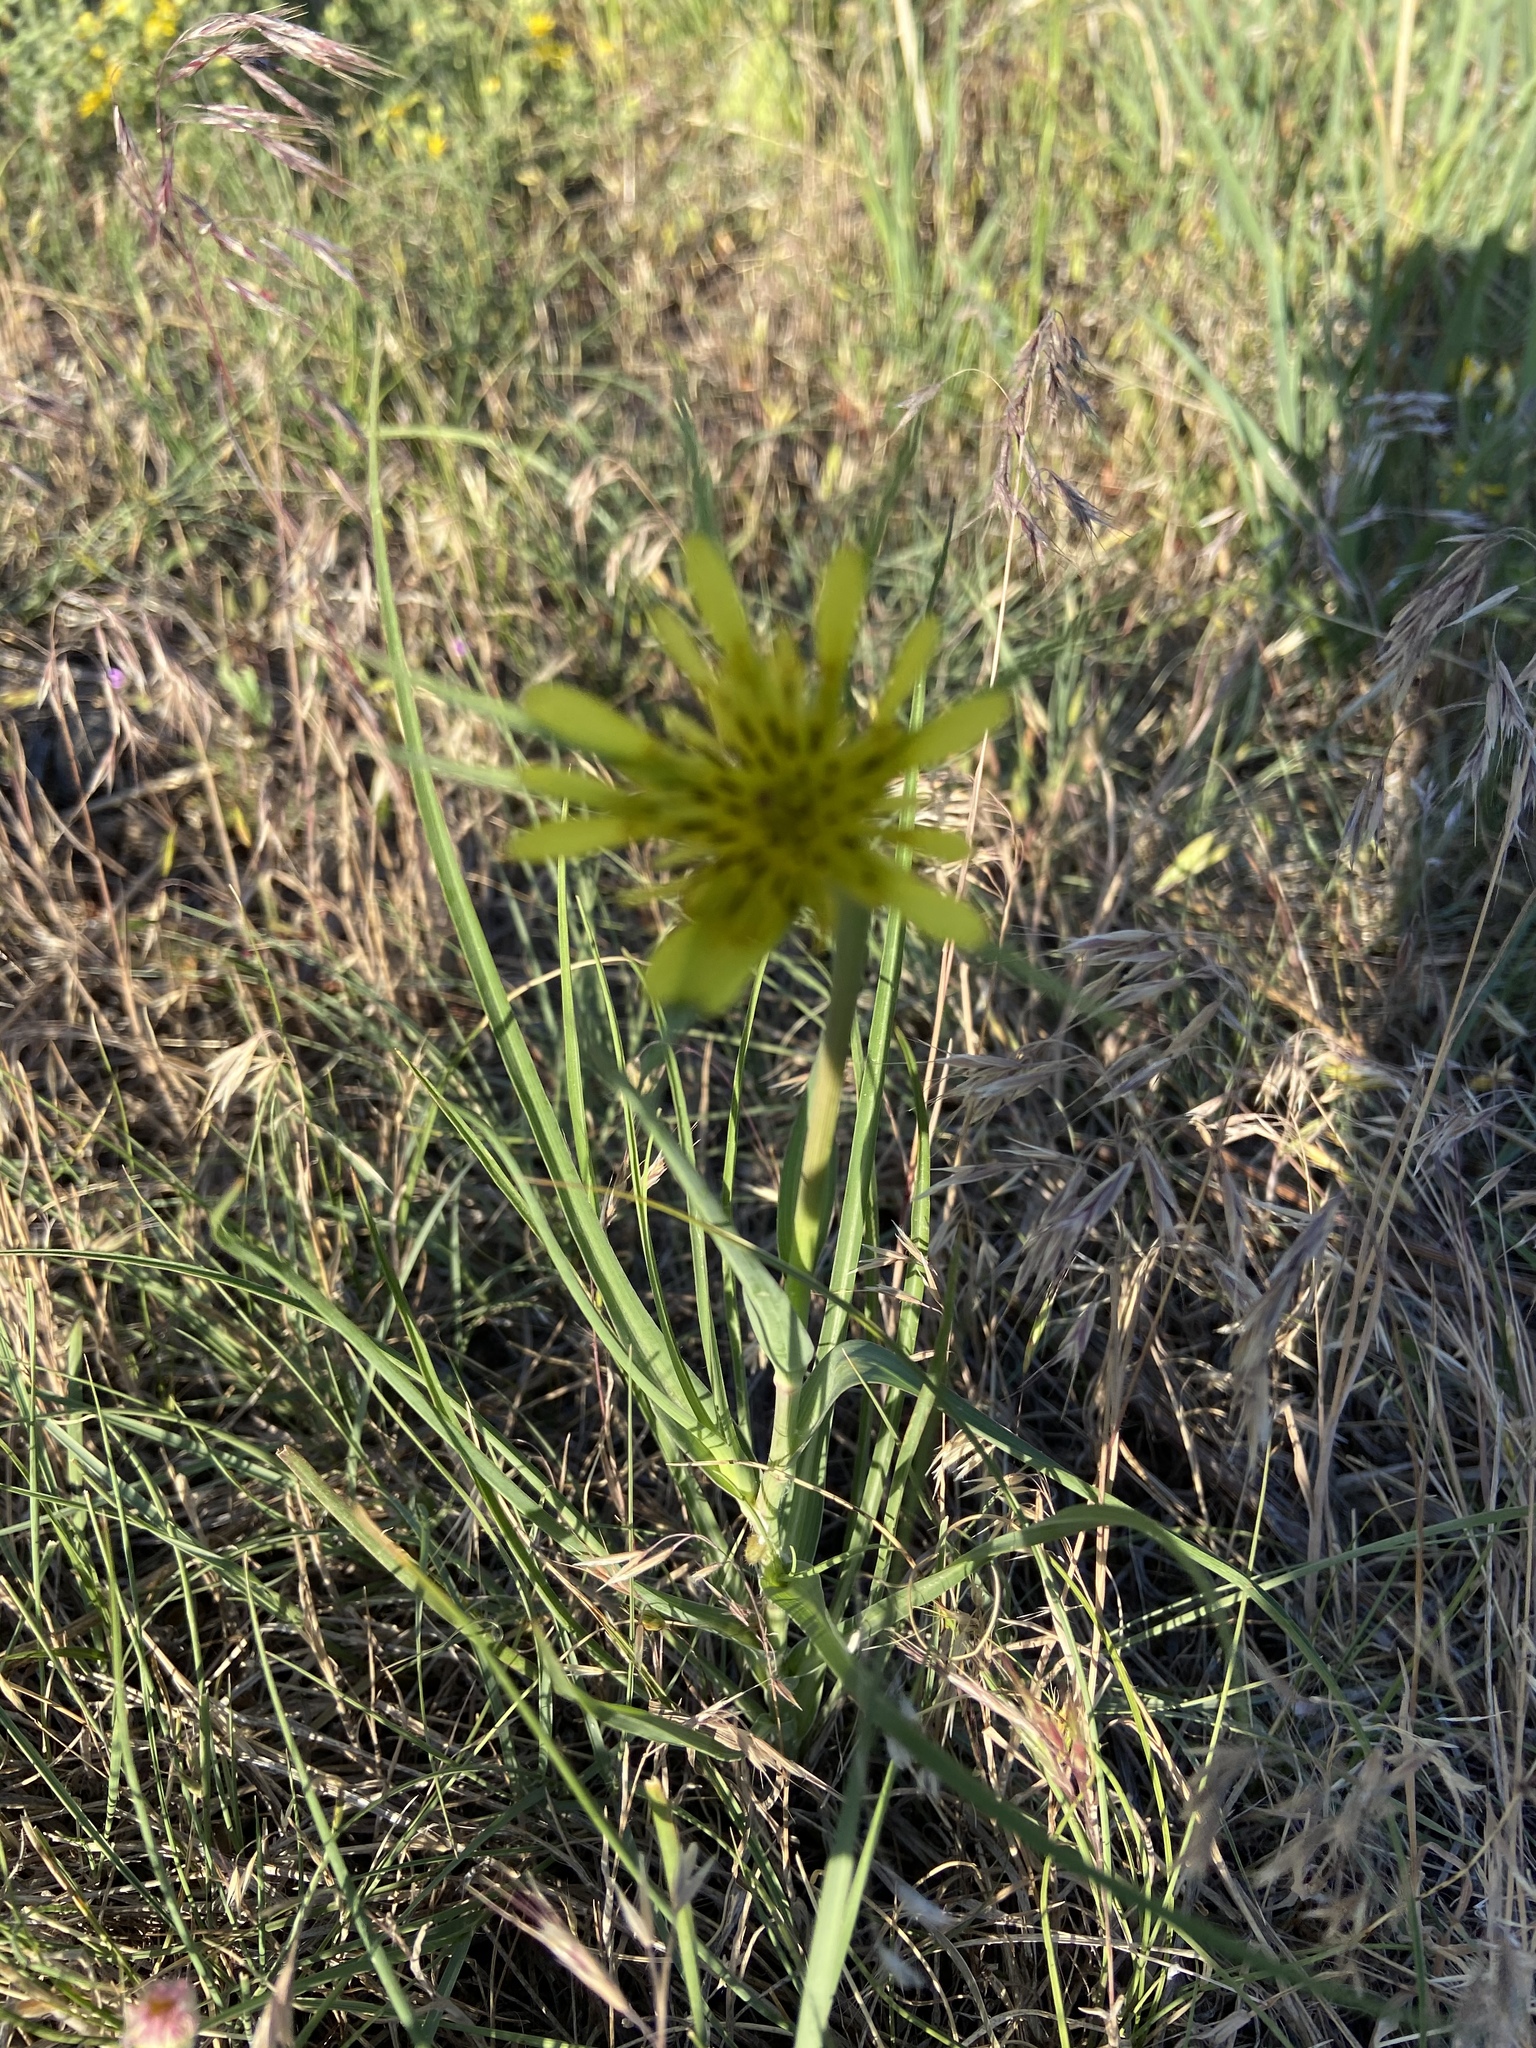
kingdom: Plantae
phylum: Tracheophyta
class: Magnoliopsida
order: Asterales
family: Asteraceae
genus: Tragopogon
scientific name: Tragopogon dubius
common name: Yellow salsify
